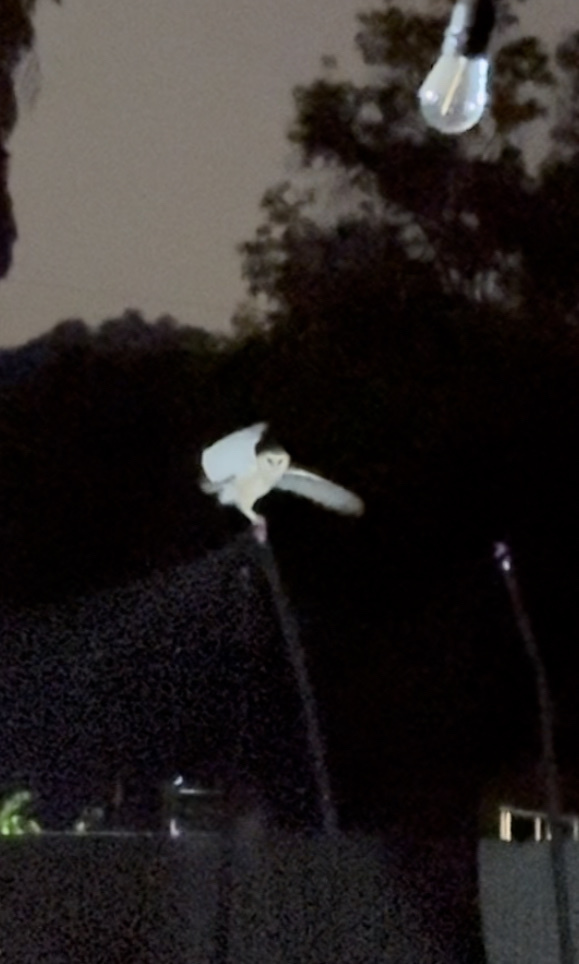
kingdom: Animalia
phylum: Chordata
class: Aves
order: Strigiformes
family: Tytonidae
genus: Tyto
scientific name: Tyto alba
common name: Barn owl
